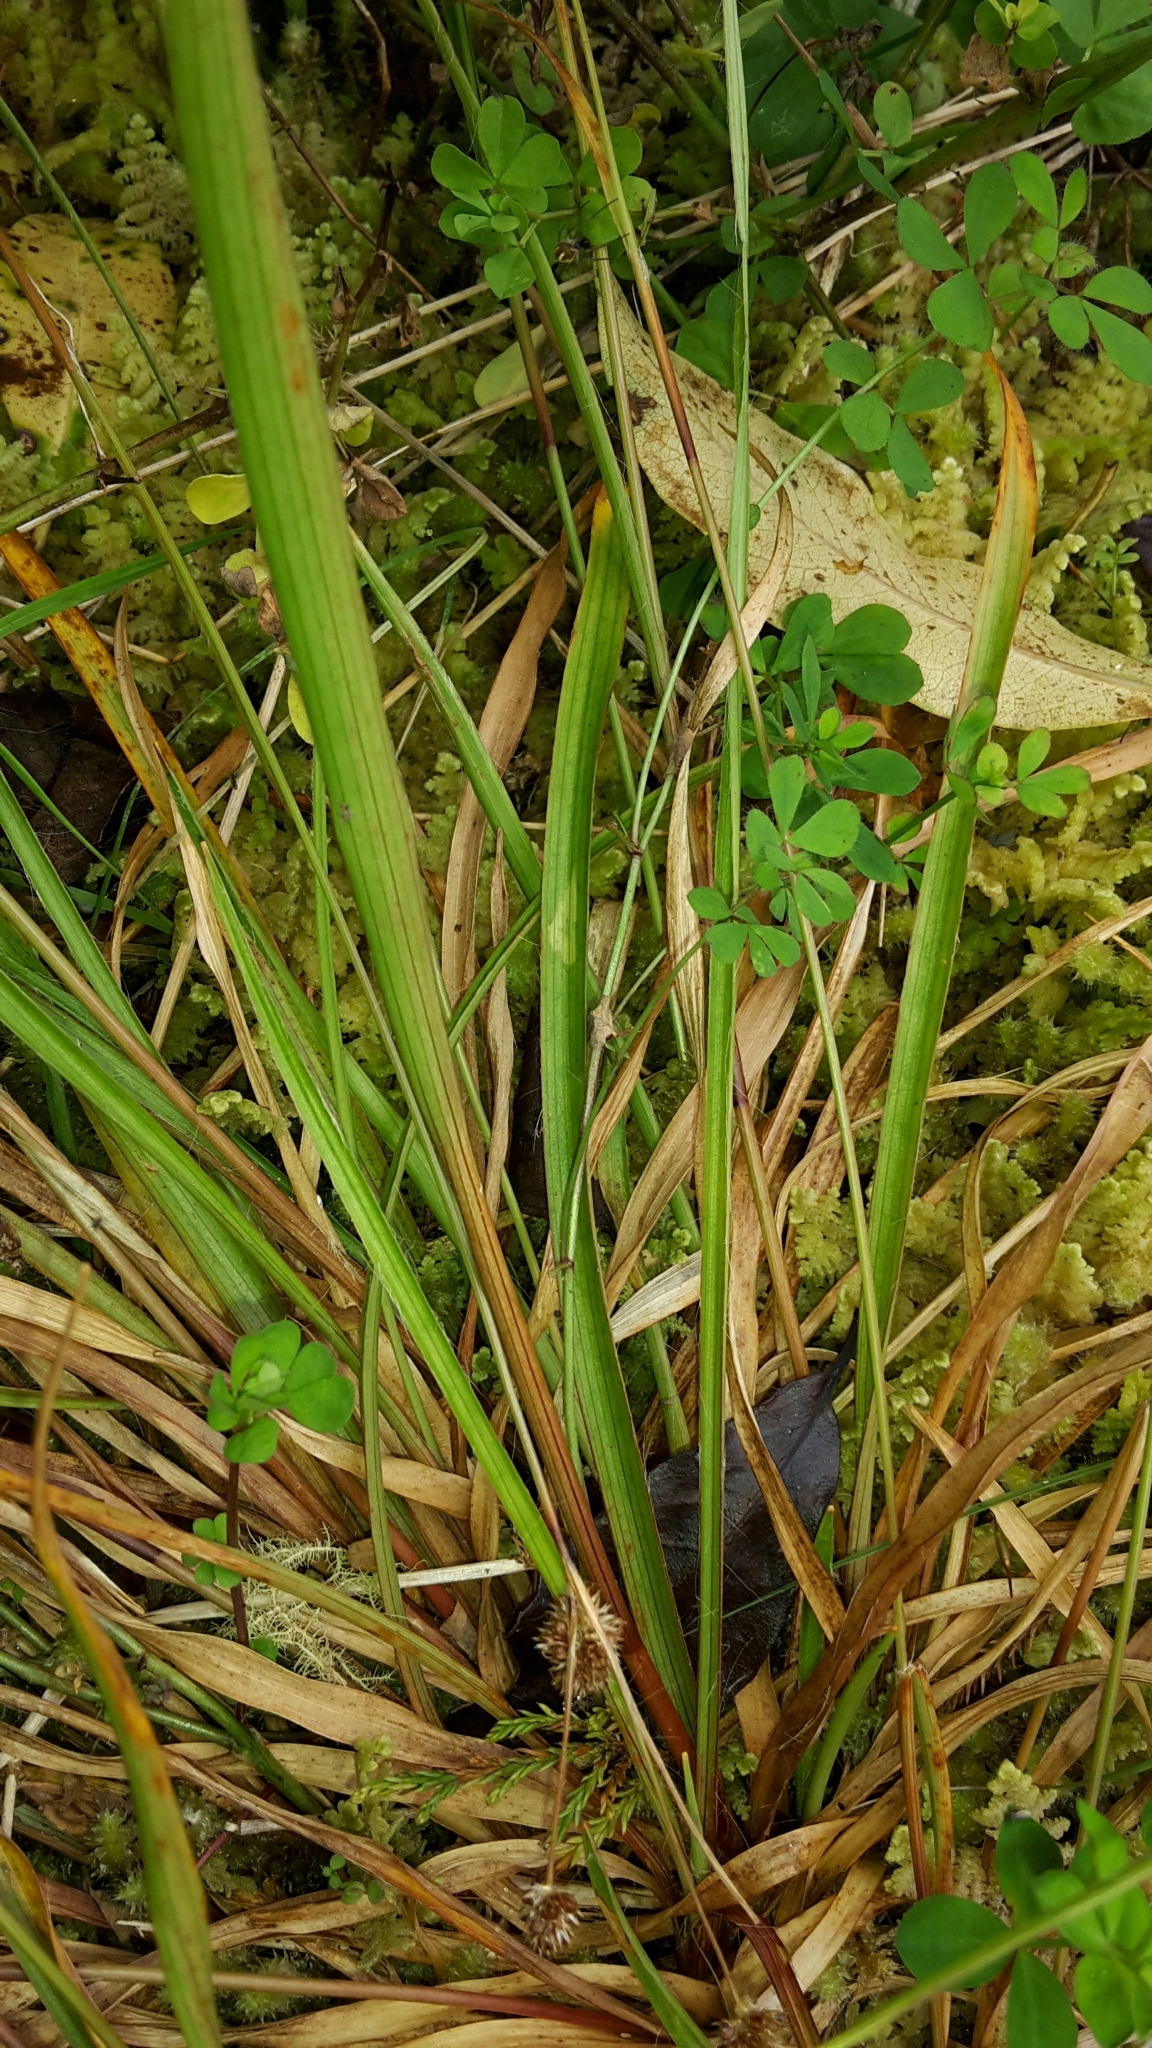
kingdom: Plantae
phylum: Tracheophyta
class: Liliopsida
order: Poales
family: Juncaceae
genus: Luzula
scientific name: Luzula multiflora
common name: Heath wood-rush
